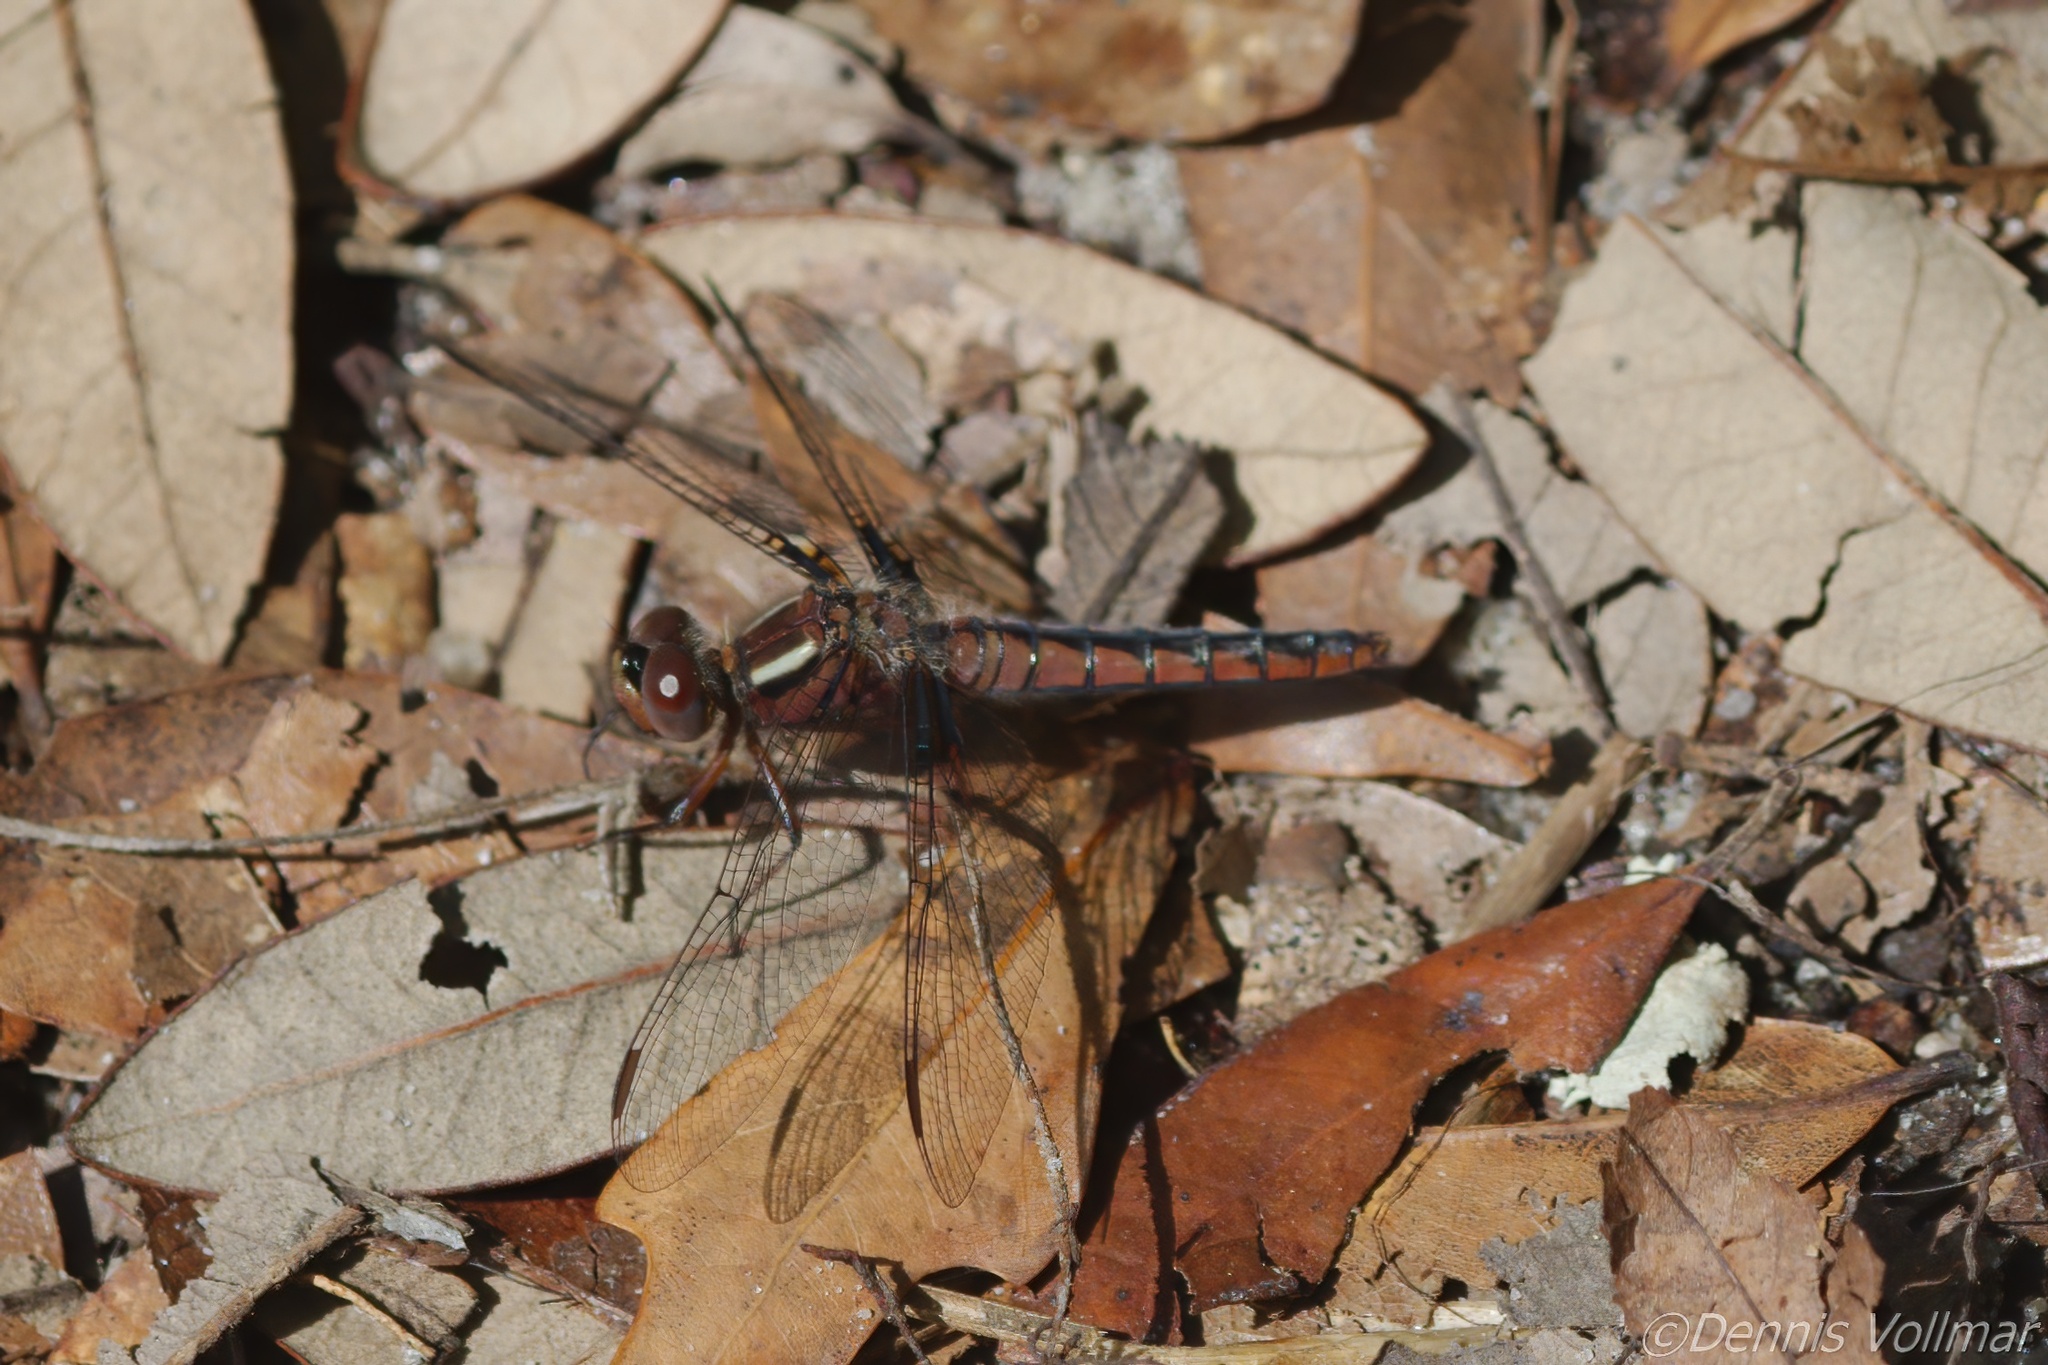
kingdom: Animalia
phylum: Arthropoda
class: Insecta
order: Odonata
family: Libellulidae
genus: Ladona
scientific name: Ladona deplanata
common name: Blue corporal
